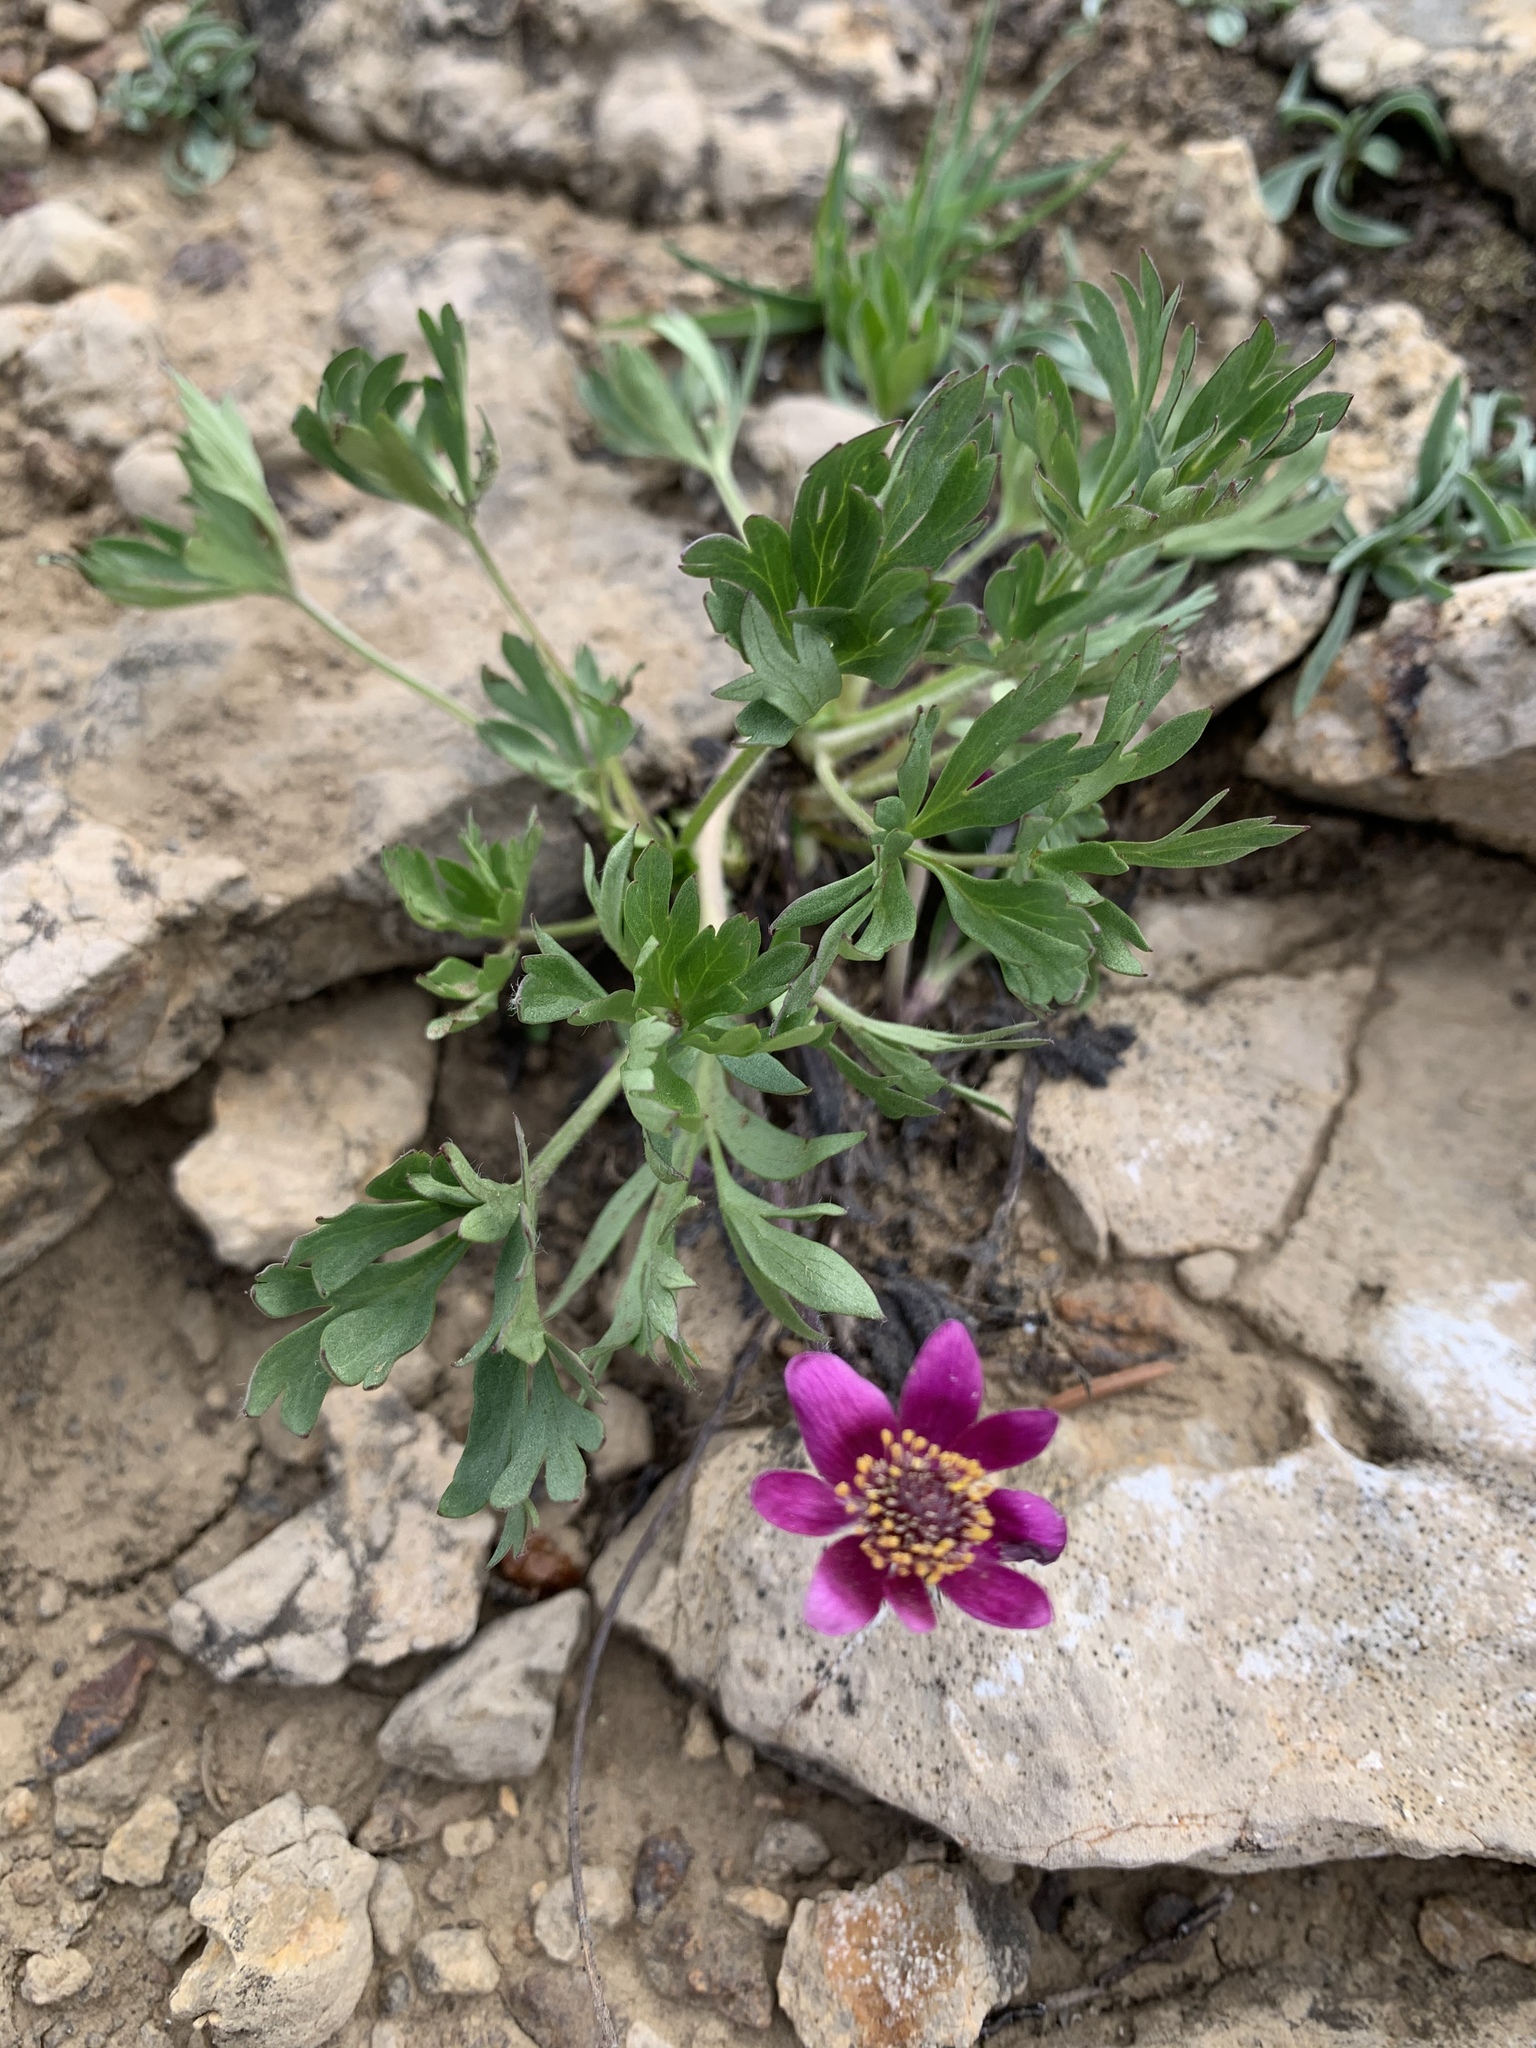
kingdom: Plantae
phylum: Tracheophyta
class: Magnoliopsida
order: Ranunculales
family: Ranunculaceae
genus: Anemone
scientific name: Anemone multifida
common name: Bird's-foot anemone
